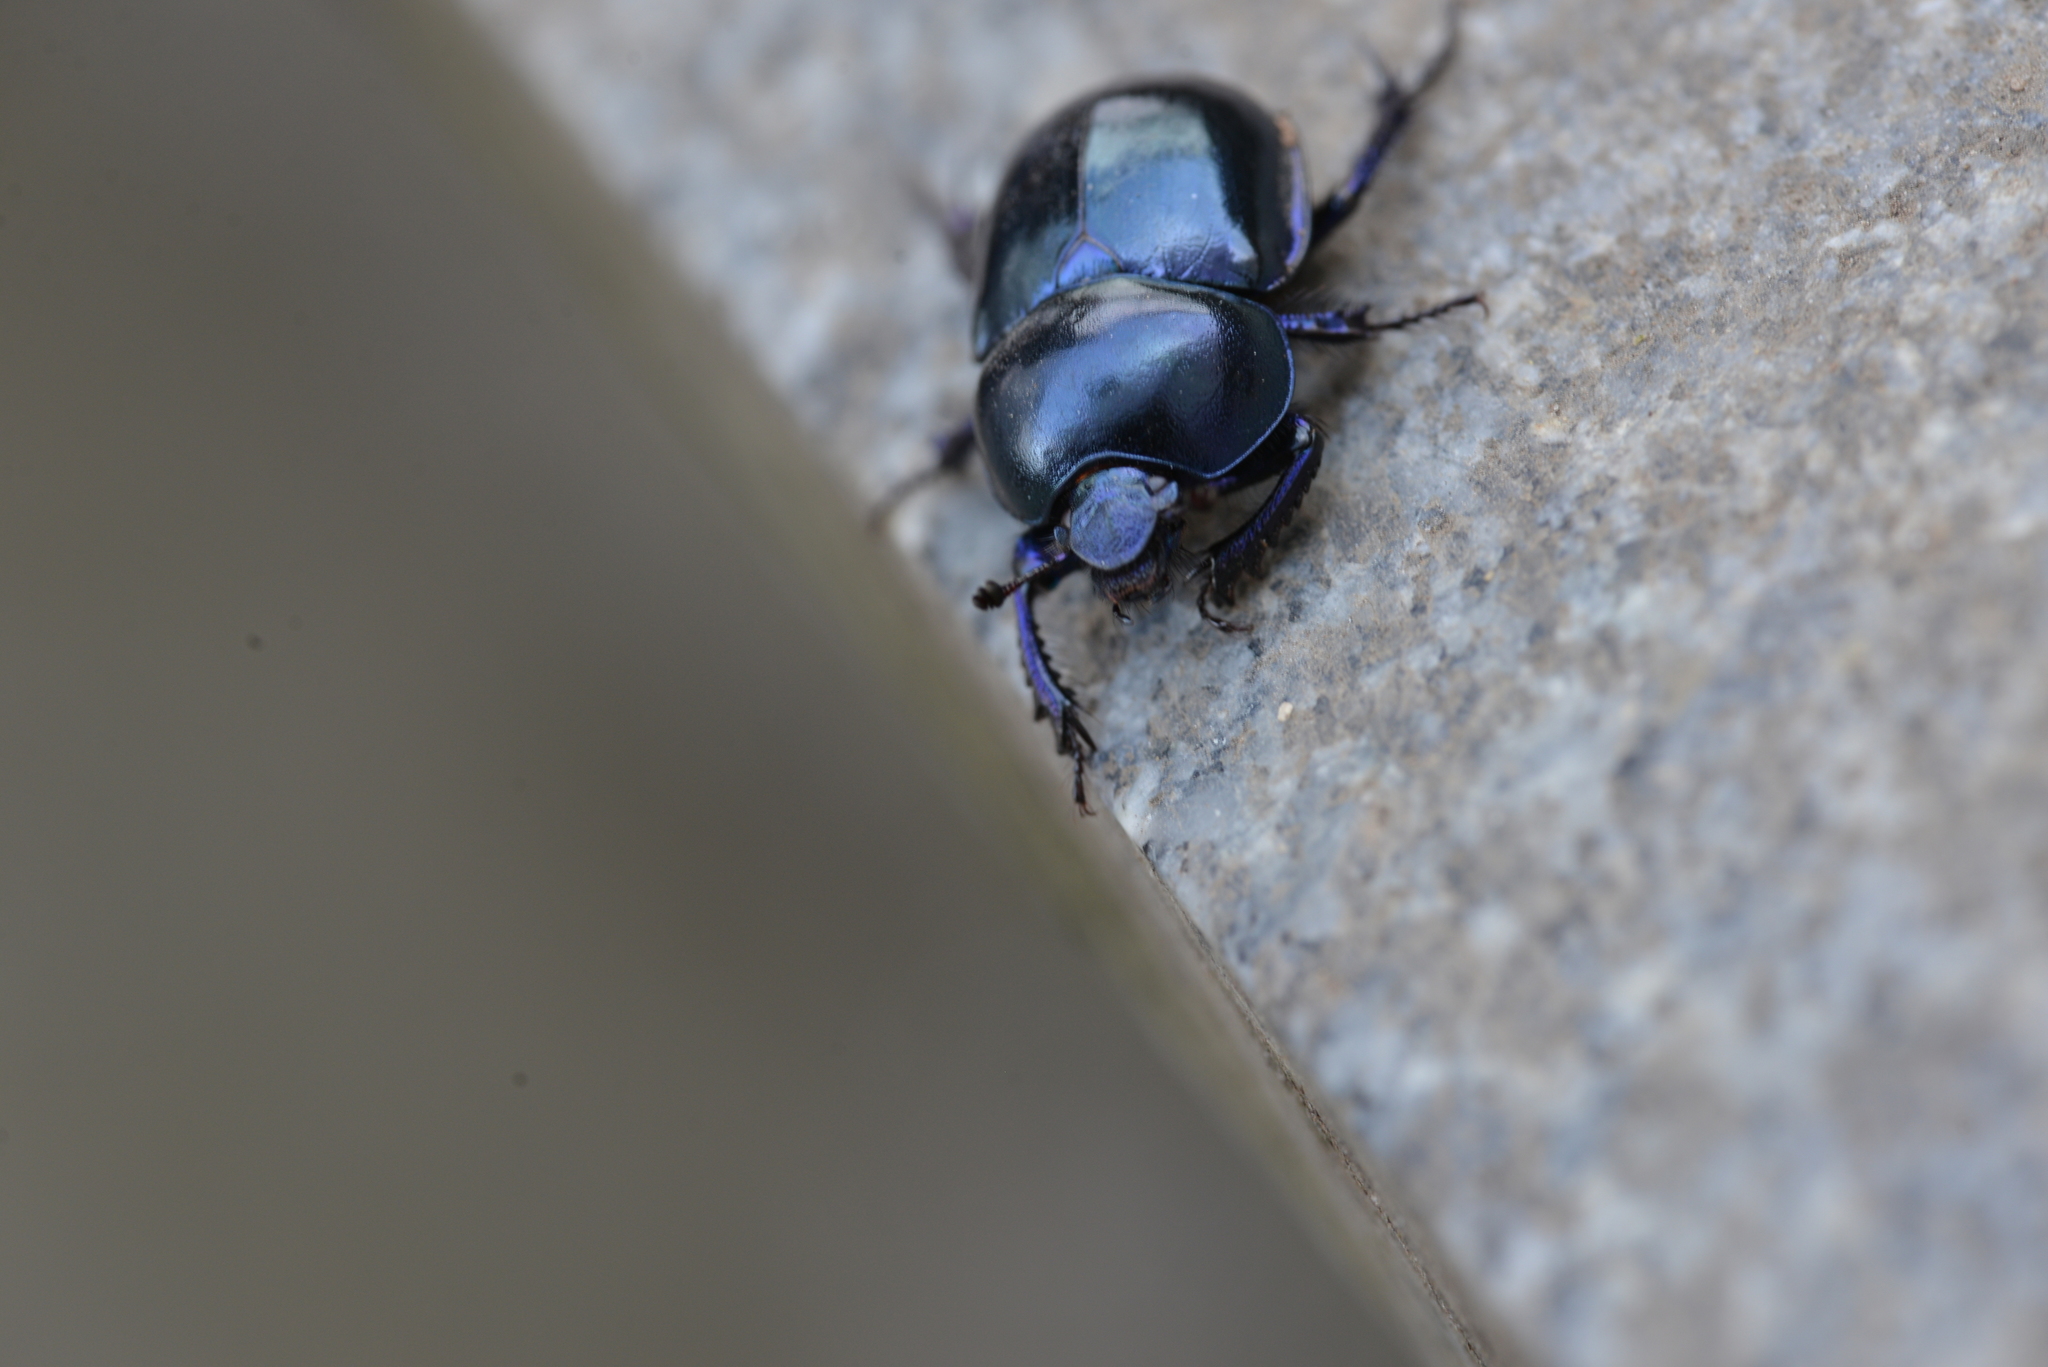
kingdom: Animalia
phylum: Arthropoda
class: Insecta
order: Coleoptera
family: Geotrupidae
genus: Trypocopris
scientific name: Trypocopris vernalis
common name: Spring dumbledor
